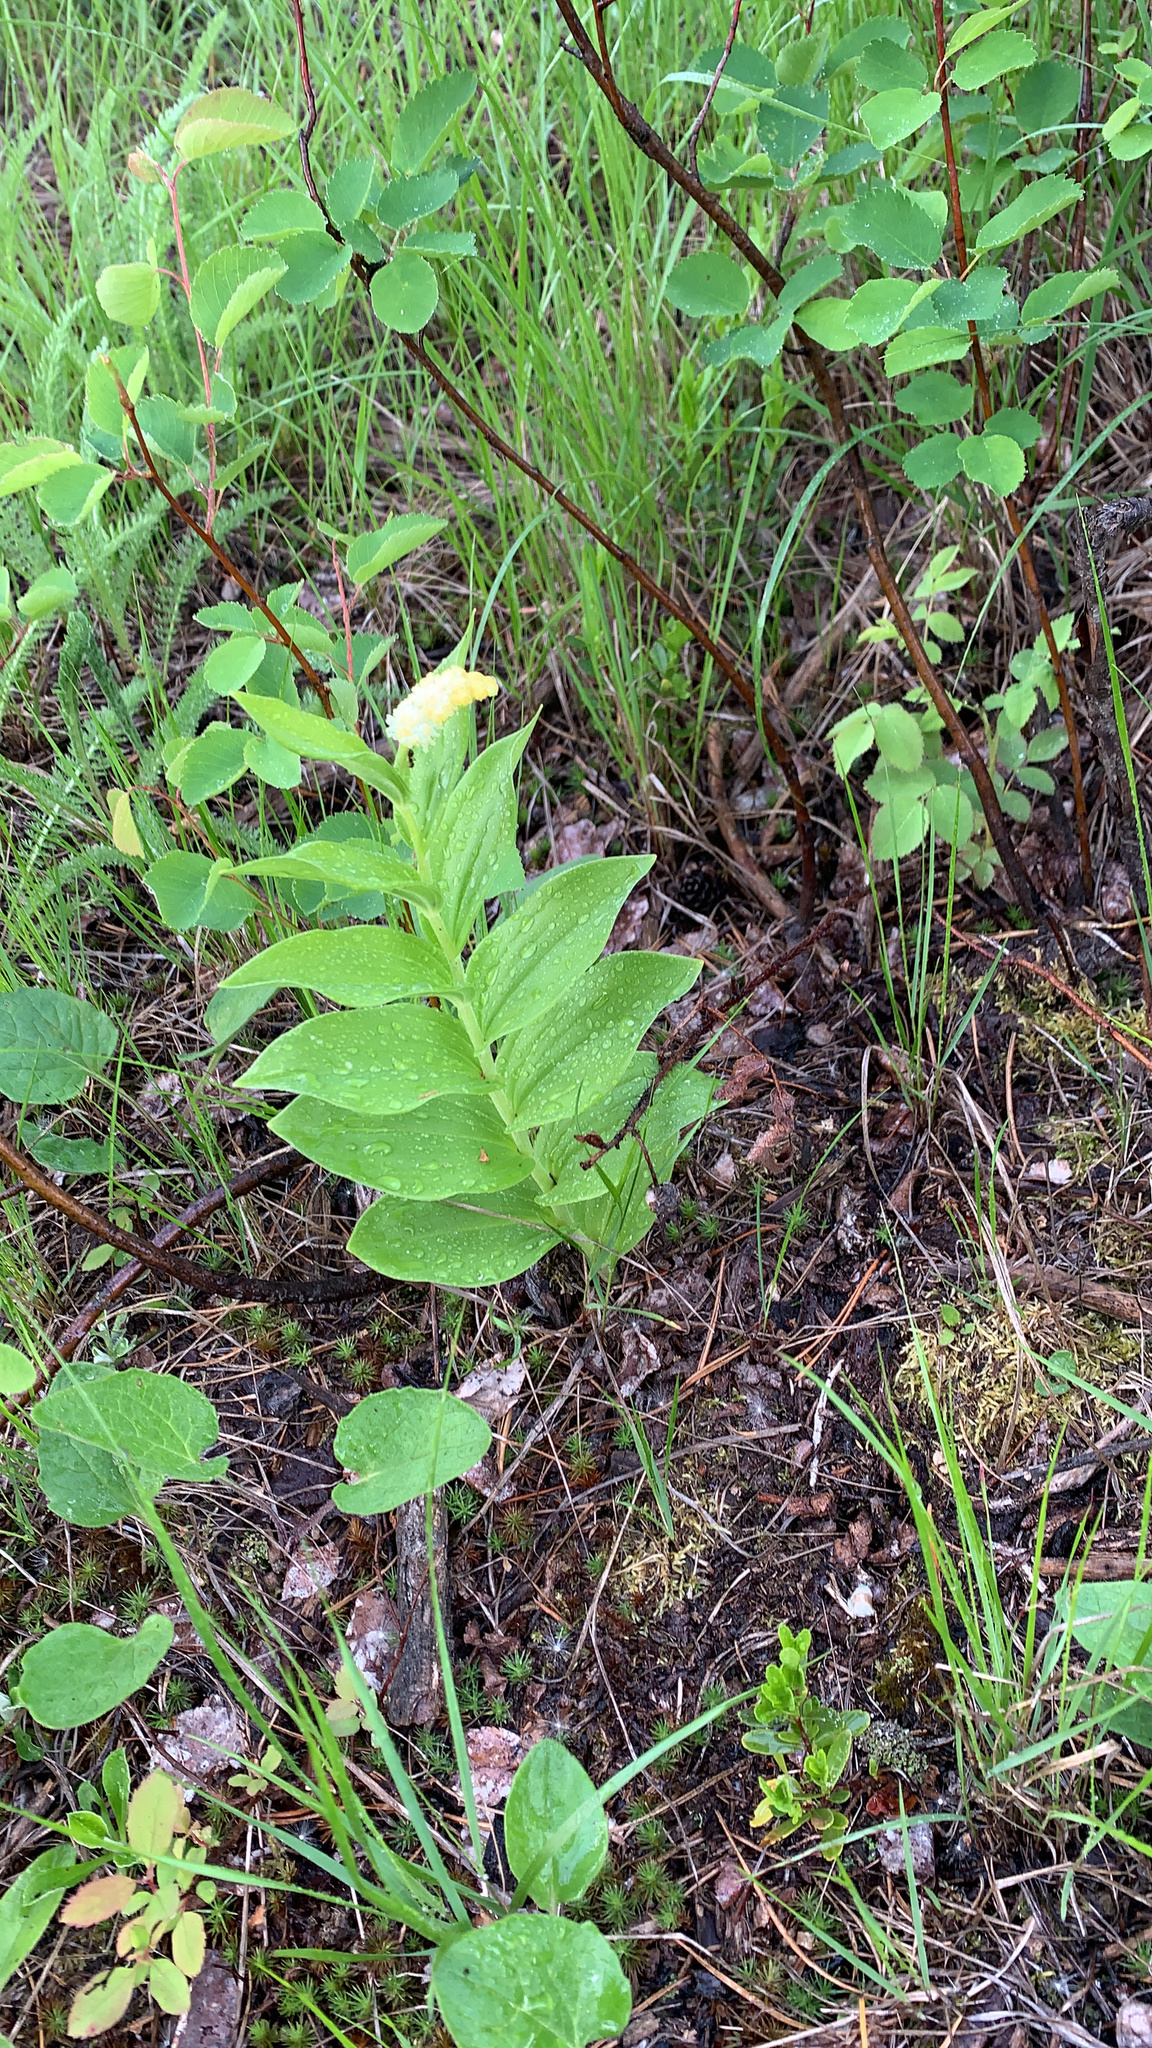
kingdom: Plantae
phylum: Tracheophyta
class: Liliopsida
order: Asparagales
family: Asparagaceae
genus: Maianthemum
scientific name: Maianthemum racemosum
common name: False spikenard
